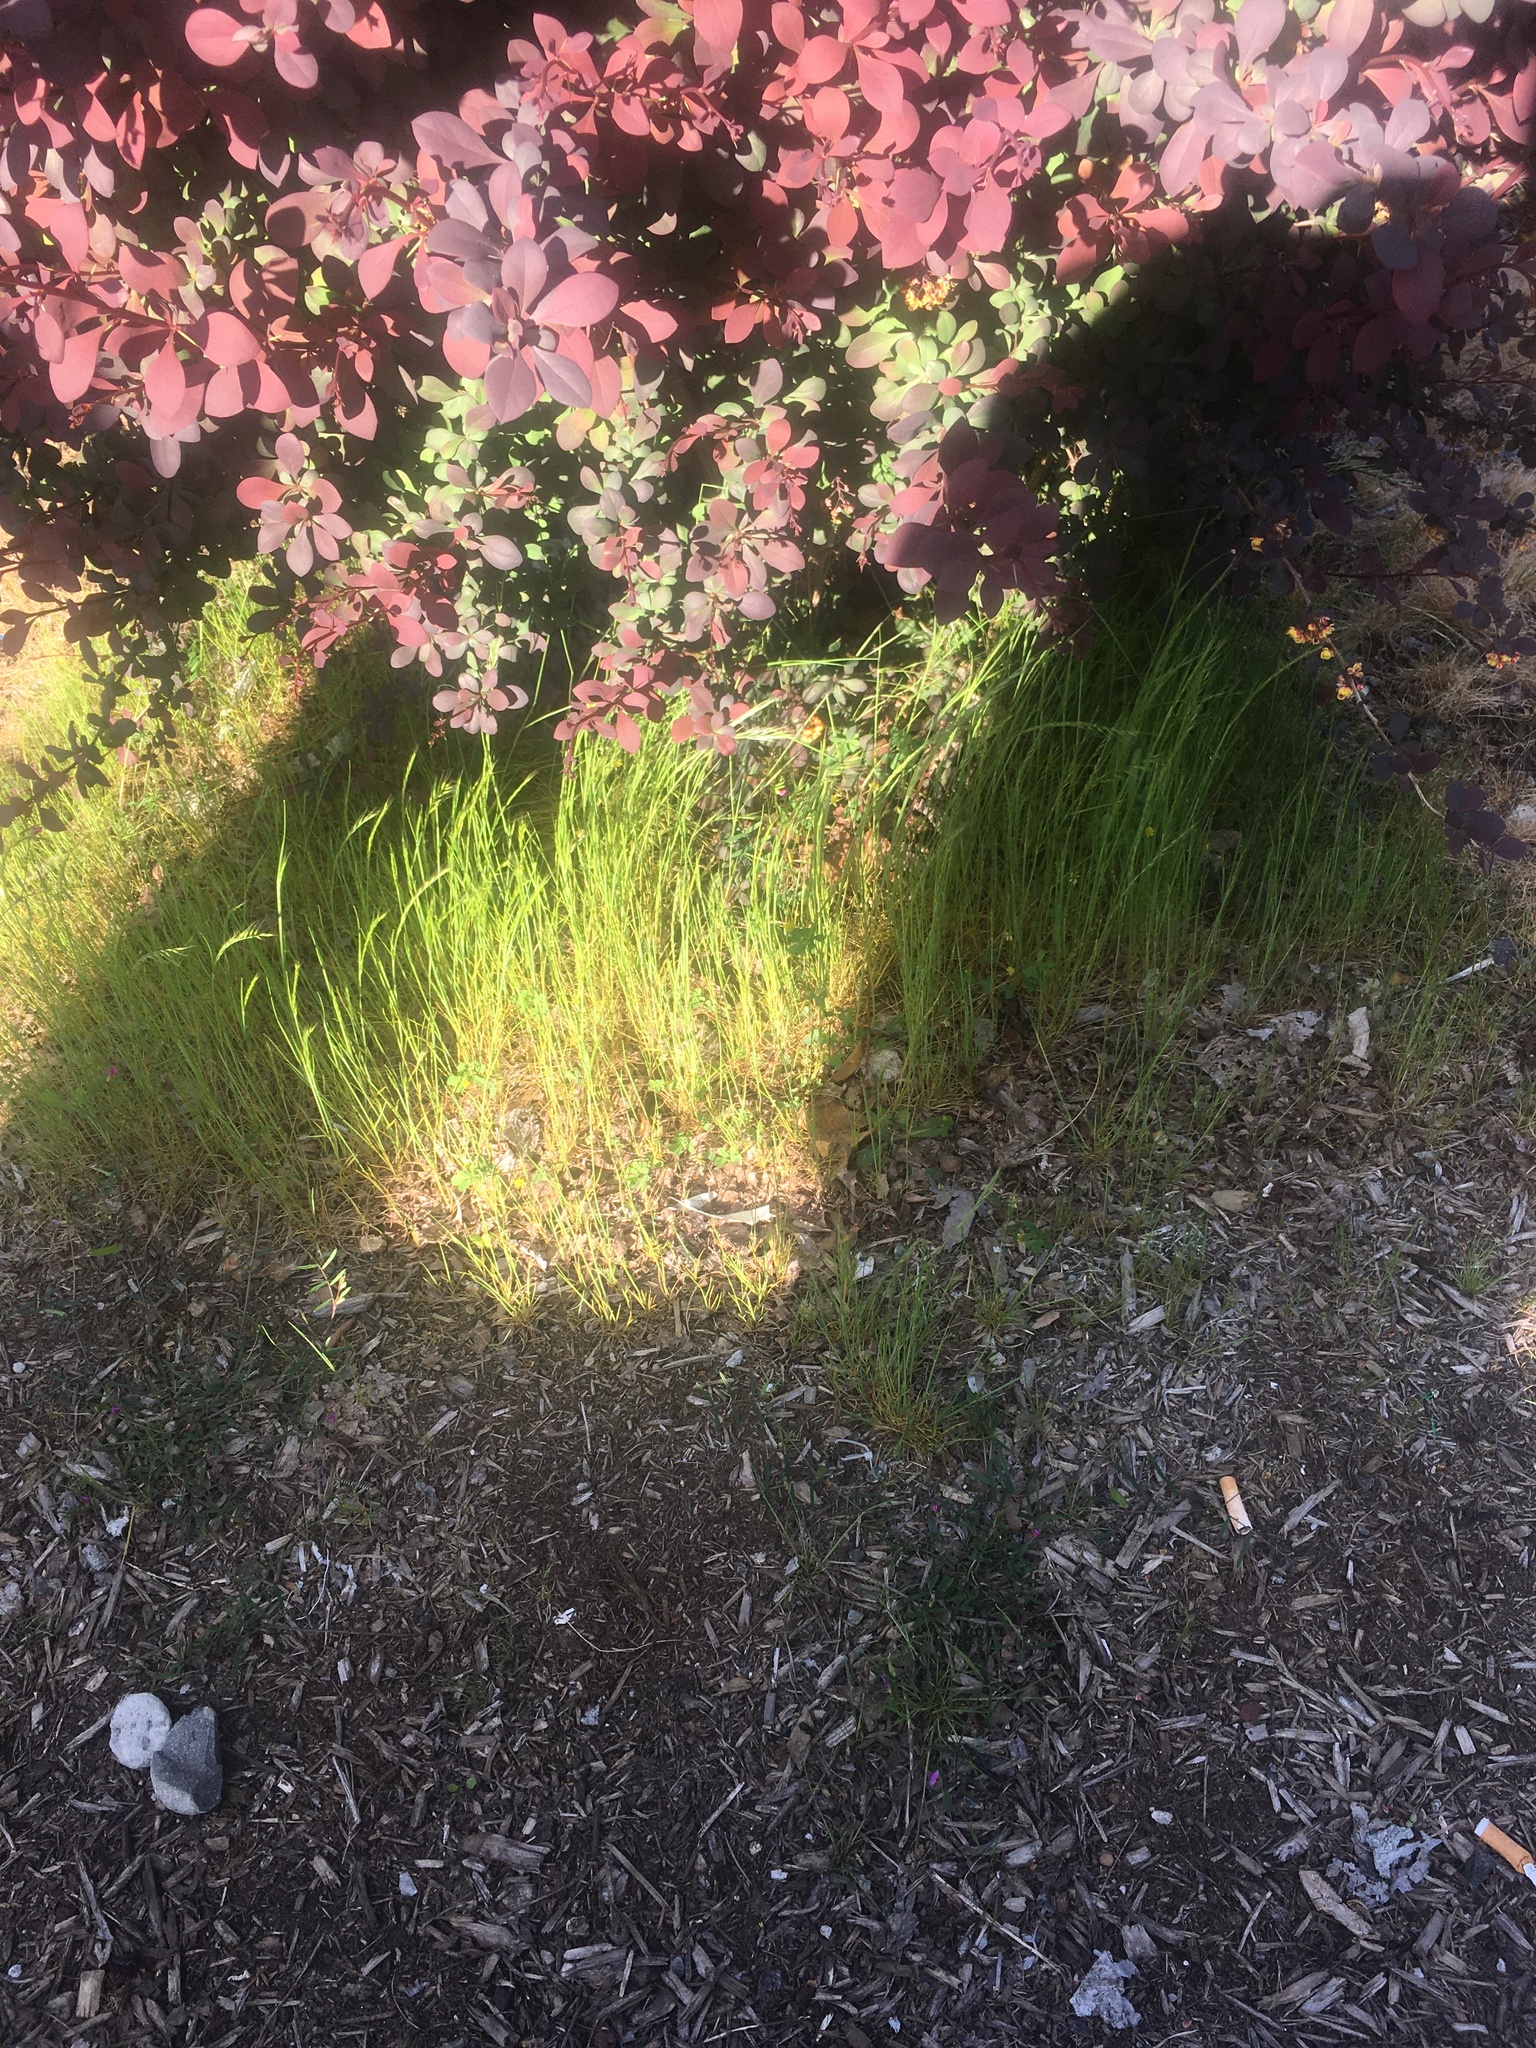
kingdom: Plantae
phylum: Tracheophyta
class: Magnoliopsida
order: Fabales
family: Fabaceae
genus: Trifolium
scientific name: Trifolium dubium
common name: Suckling clover
